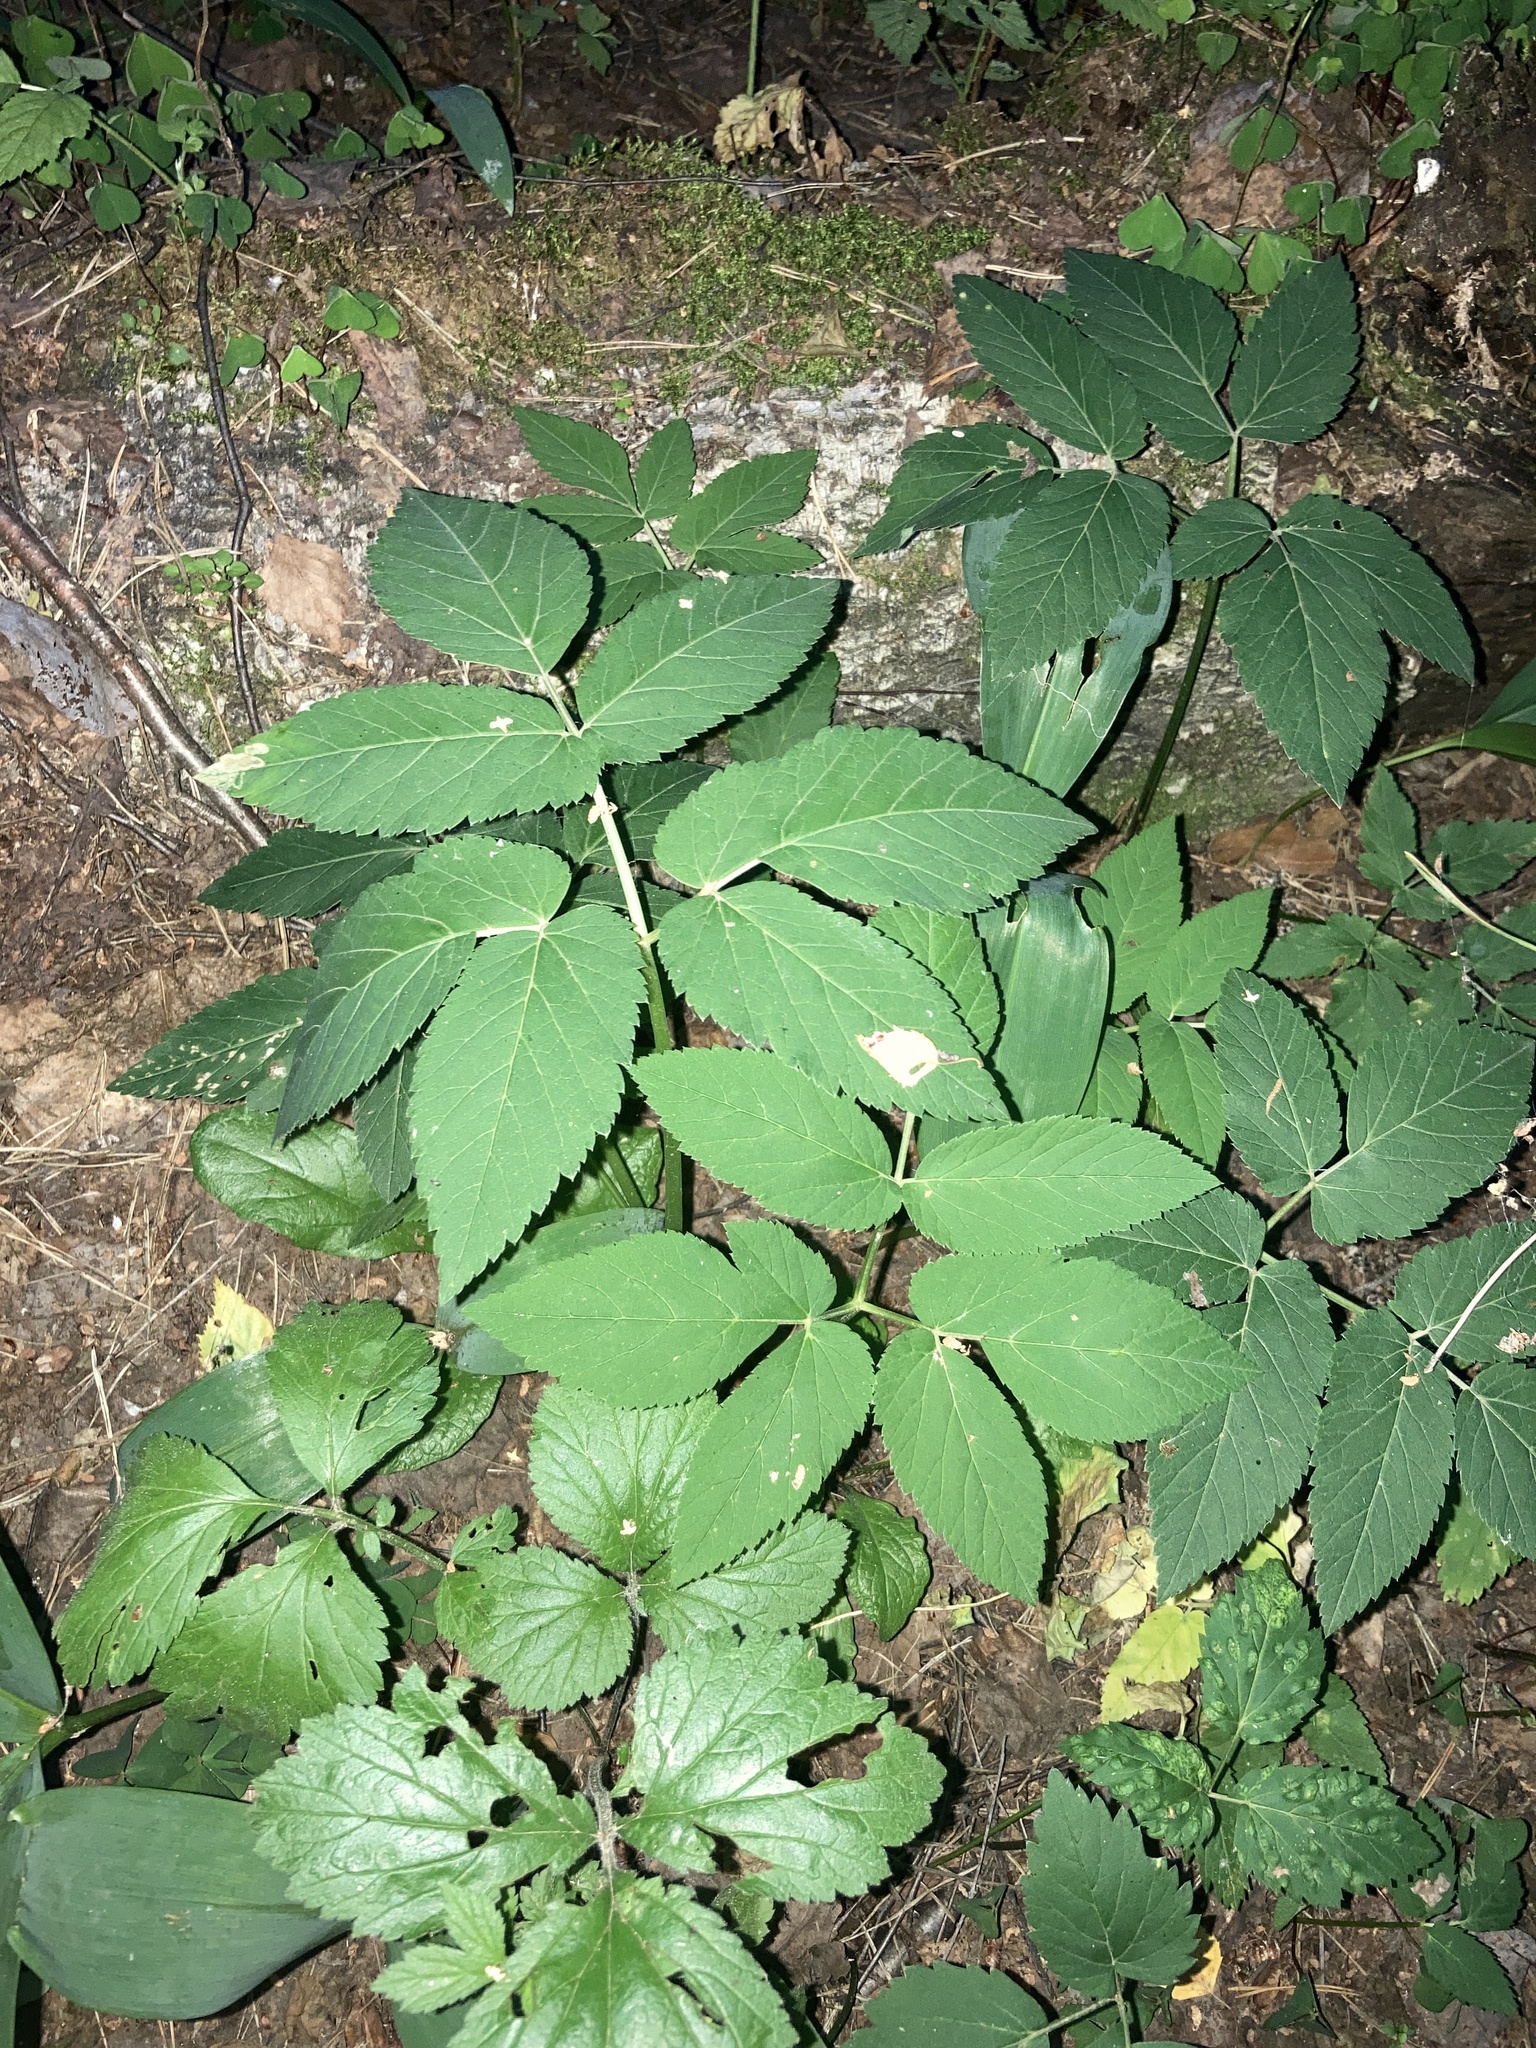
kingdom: Plantae
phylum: Tracheophyta
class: Magnoliopsida
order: Apiales
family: Apiaceae
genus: Aegopodium
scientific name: Aegopodium podagraria
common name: Ground-elder
